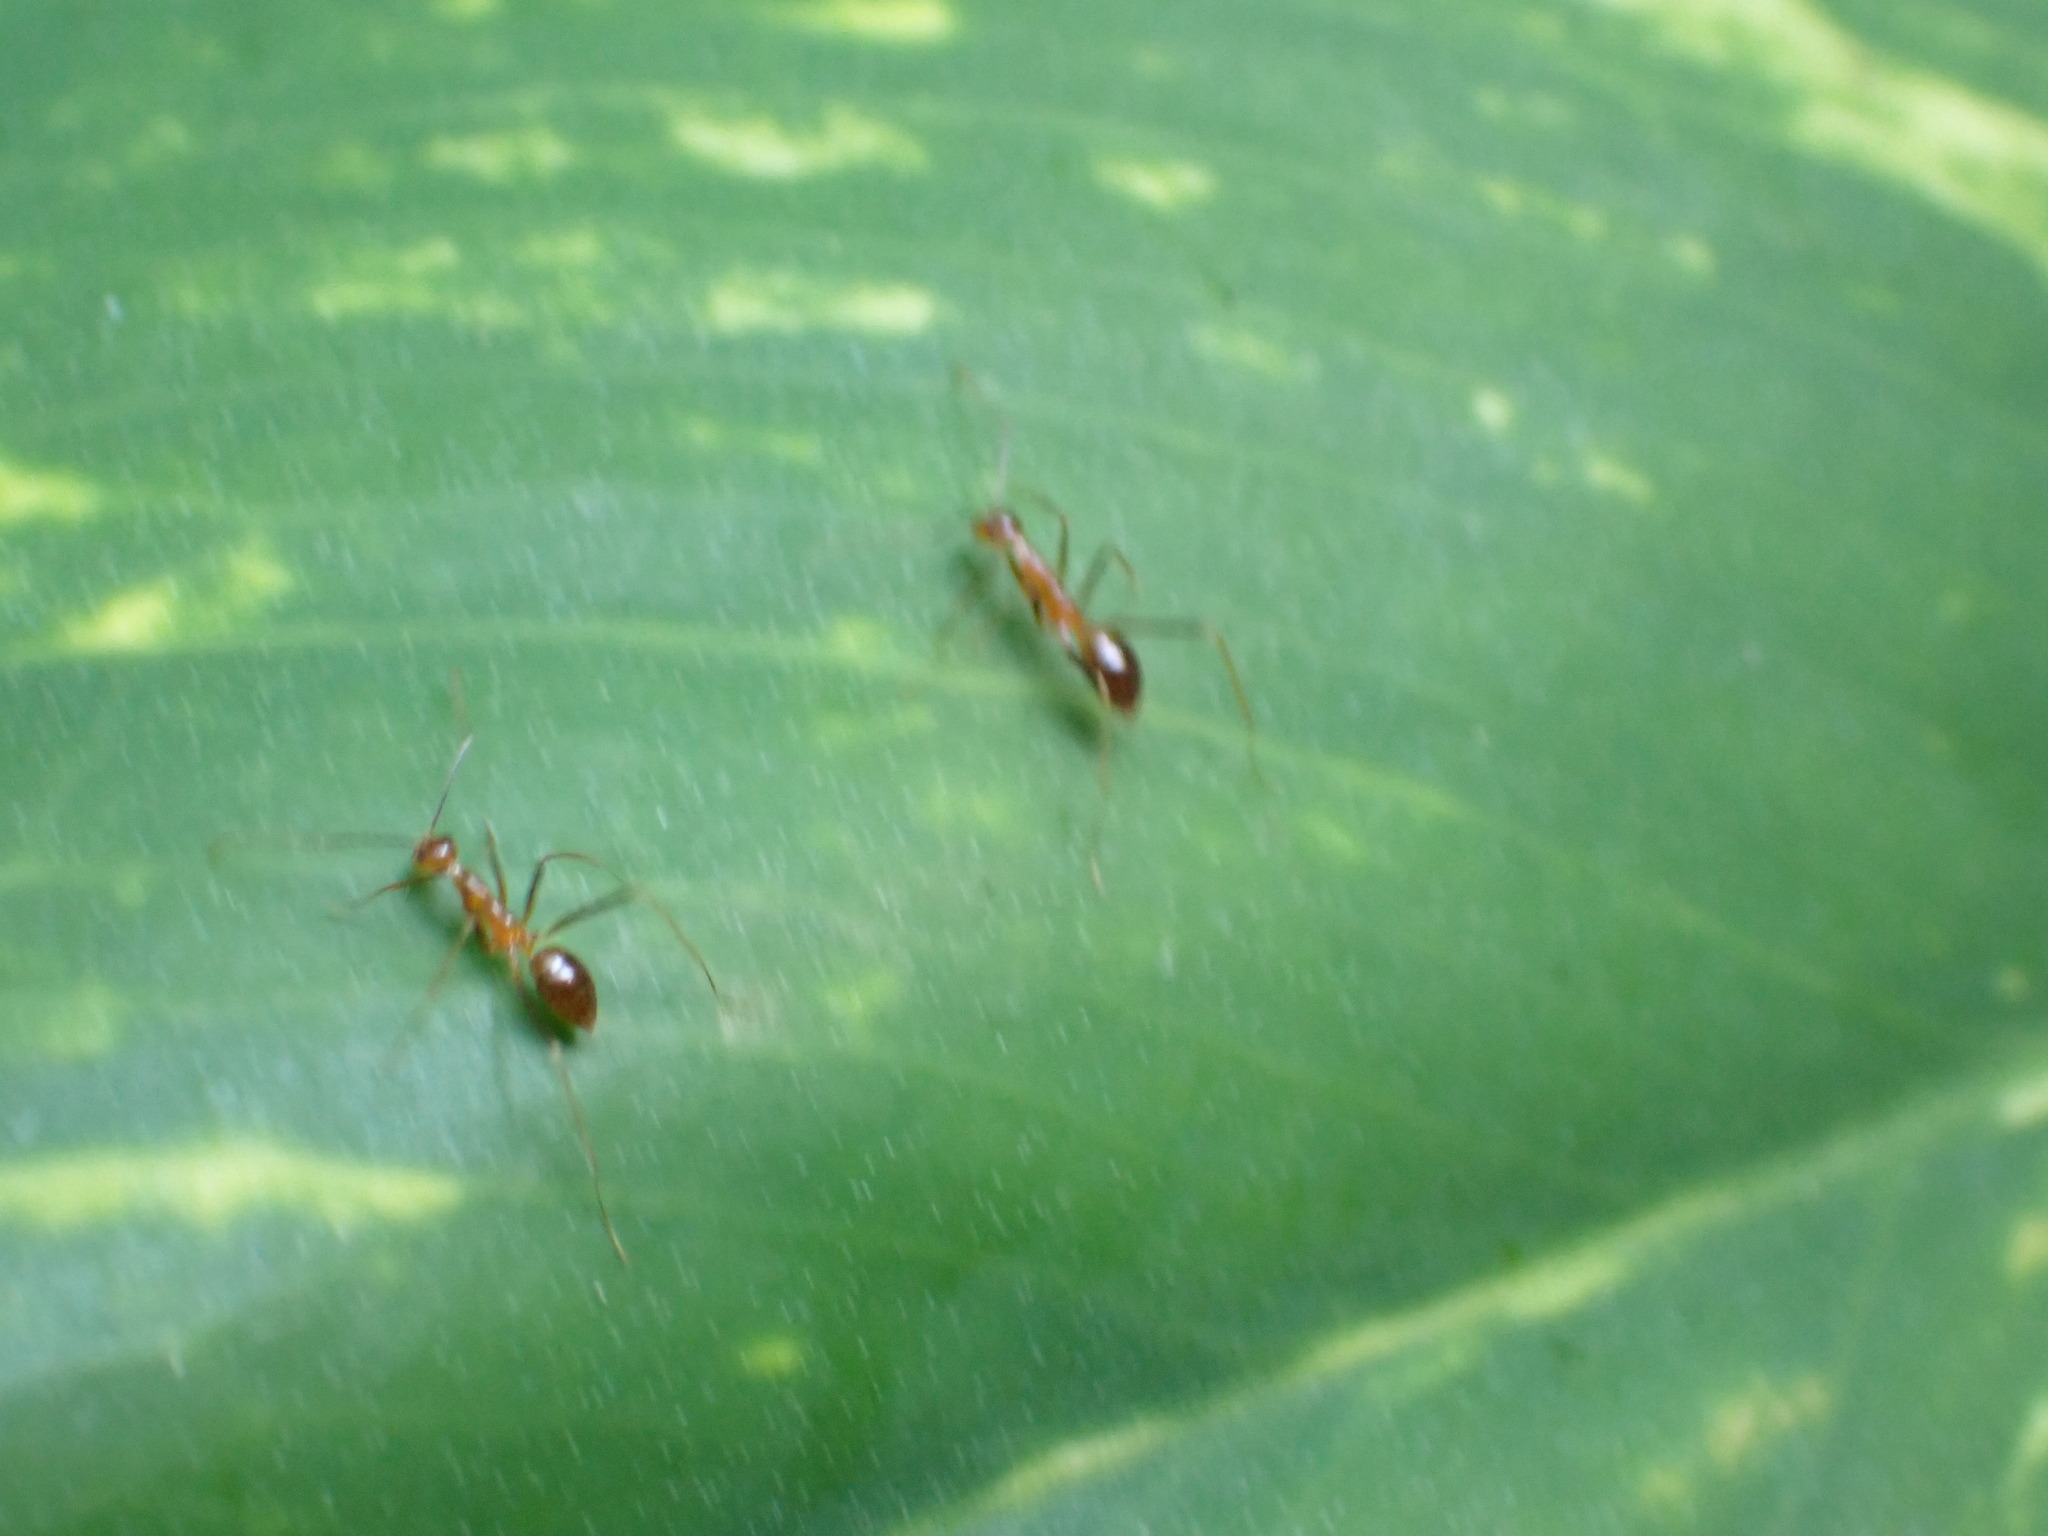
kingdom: Animalia
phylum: Arthropoda
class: Insecta
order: Hymenoptera
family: Formicidae
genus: Anoplolepis
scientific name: Anoplolepis gracilipes
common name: Ant
